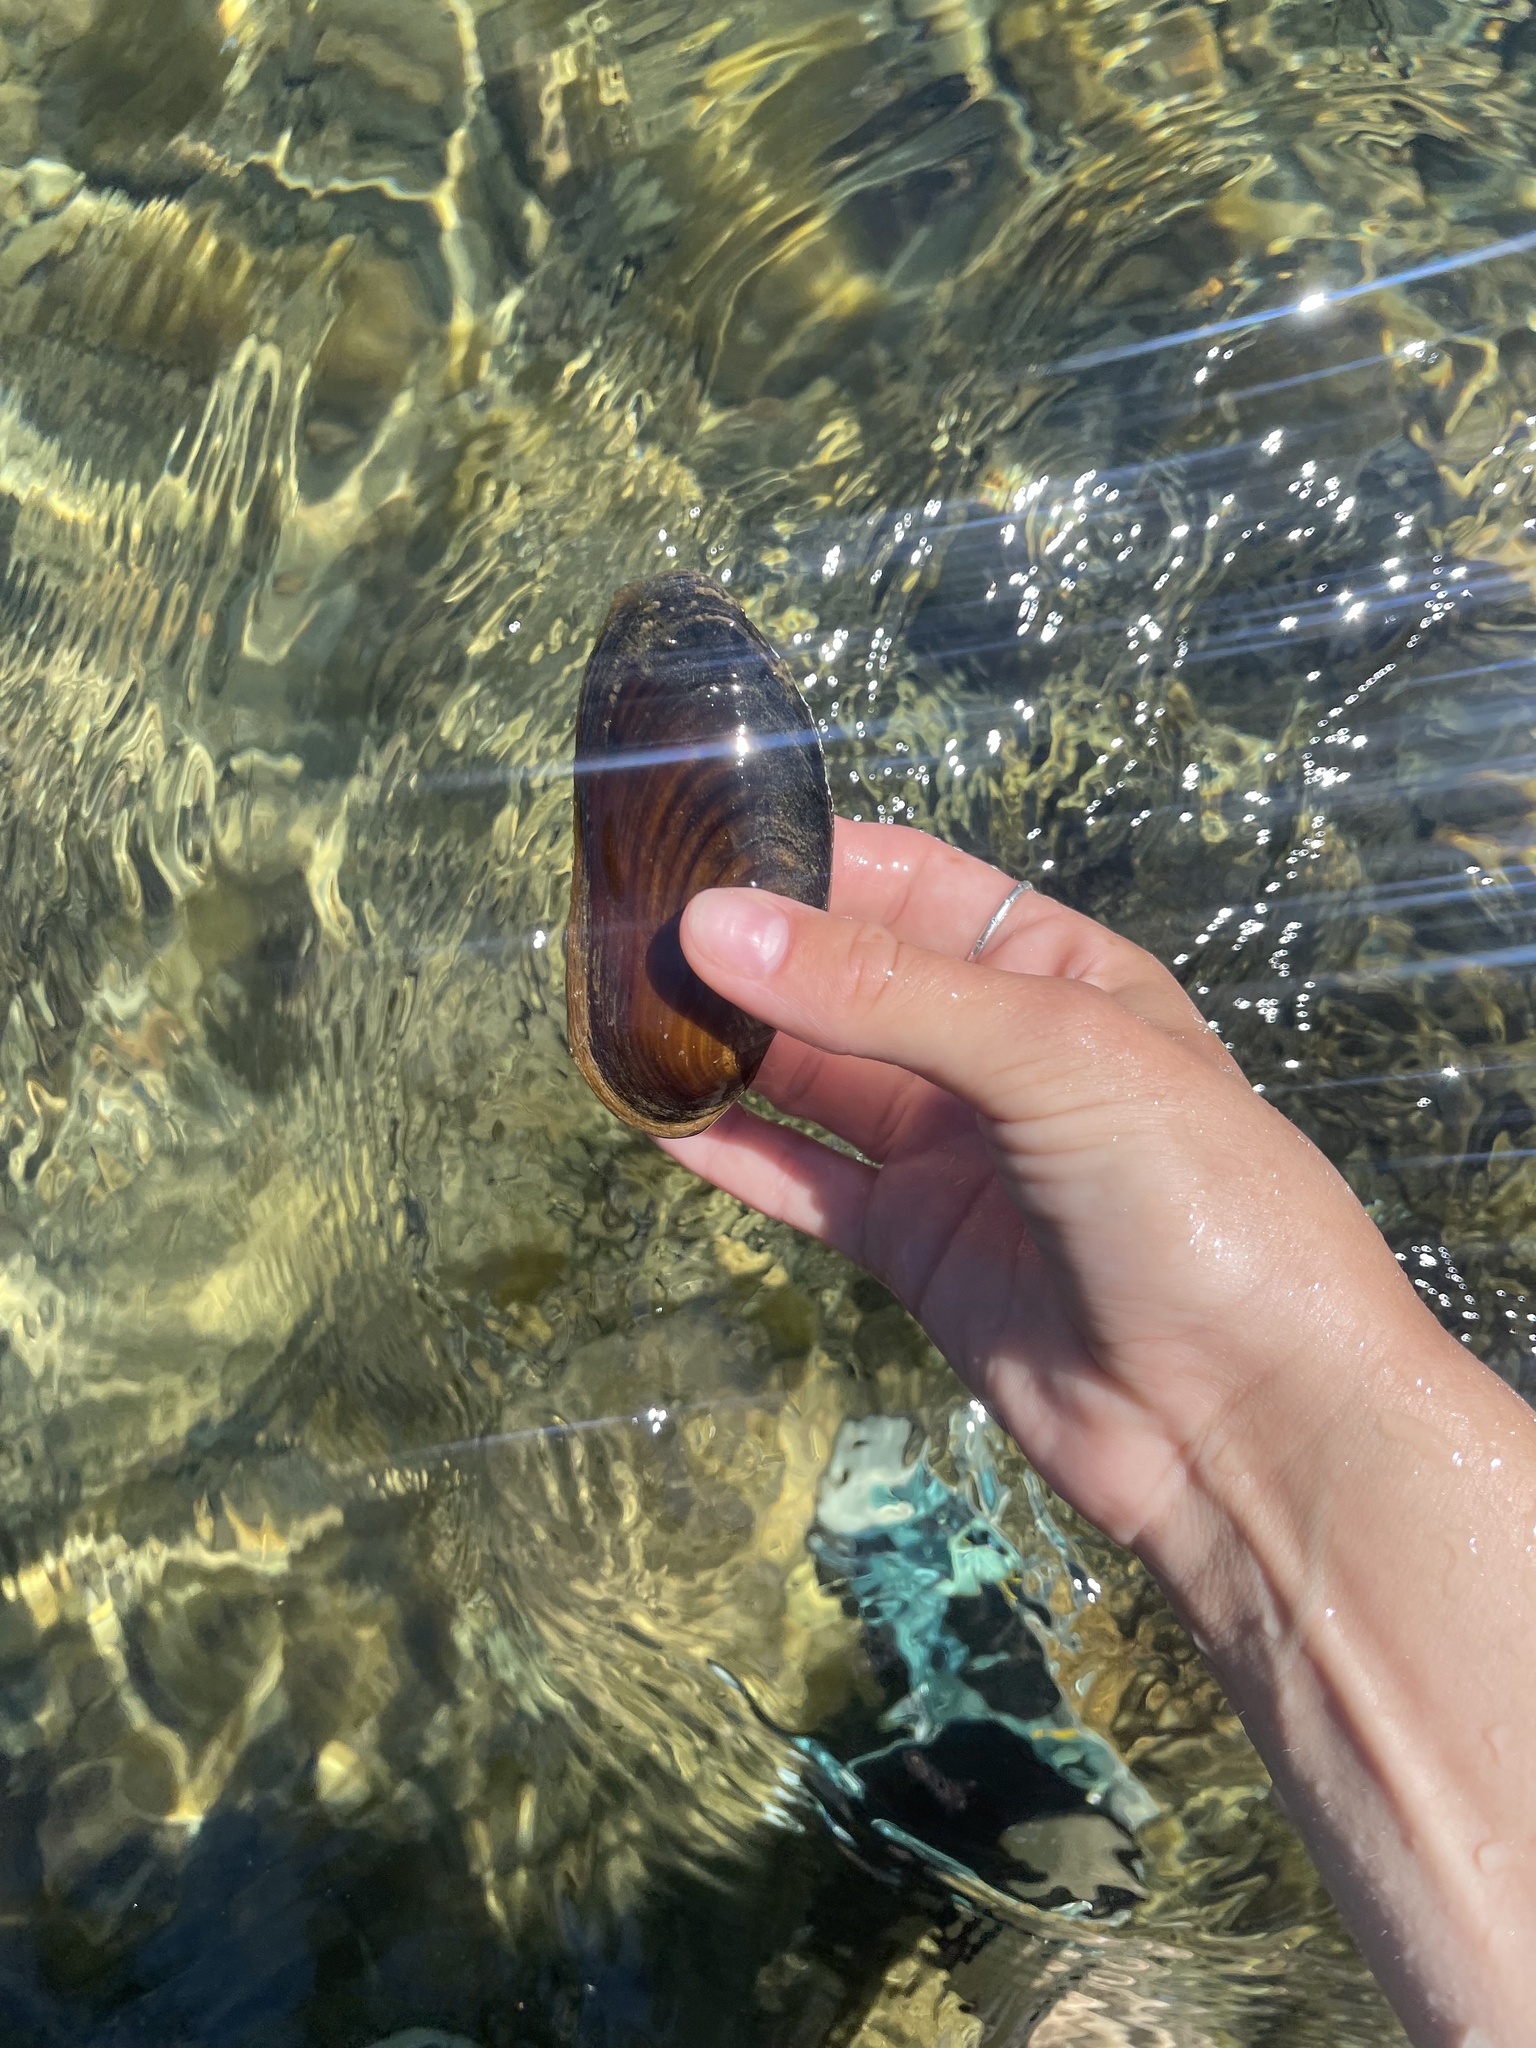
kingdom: Animalia
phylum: Mollusca
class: Bivalvia
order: Unionida
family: Margaritiferidae
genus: Margaritifera
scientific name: Margaritifera falcata
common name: Western pearlshell
